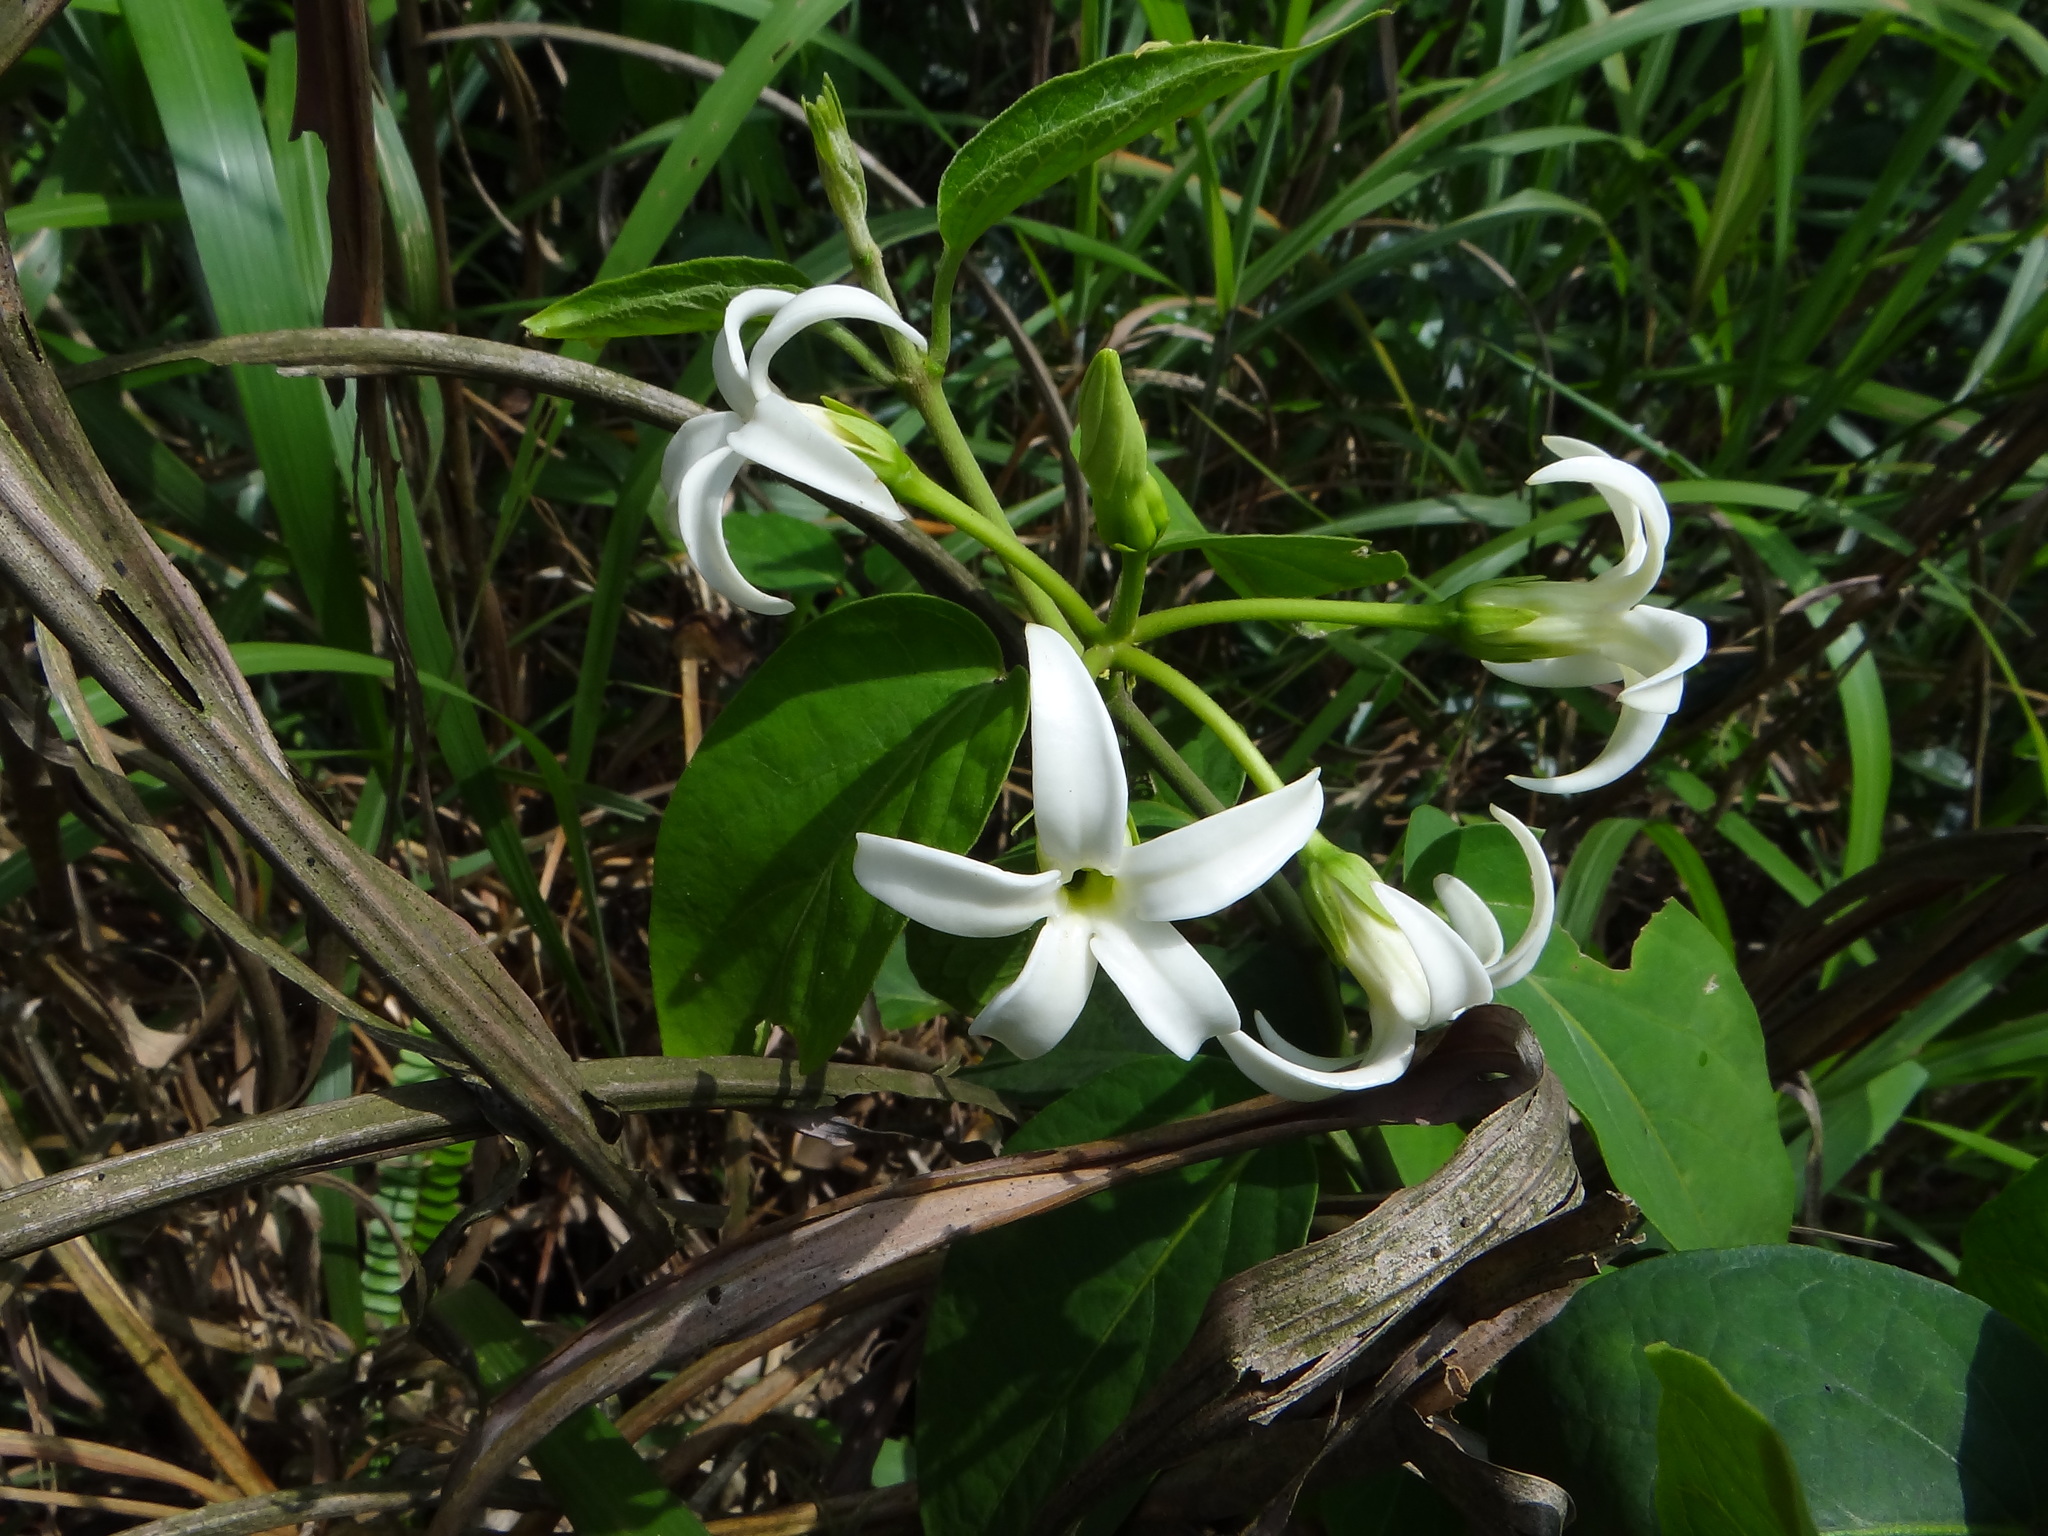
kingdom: Plantae
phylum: Tracheophyta
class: Magnoliopsida
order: Gentianales
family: Apocynaceae
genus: Jasminanthes
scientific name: Jasminanthes mucronata
